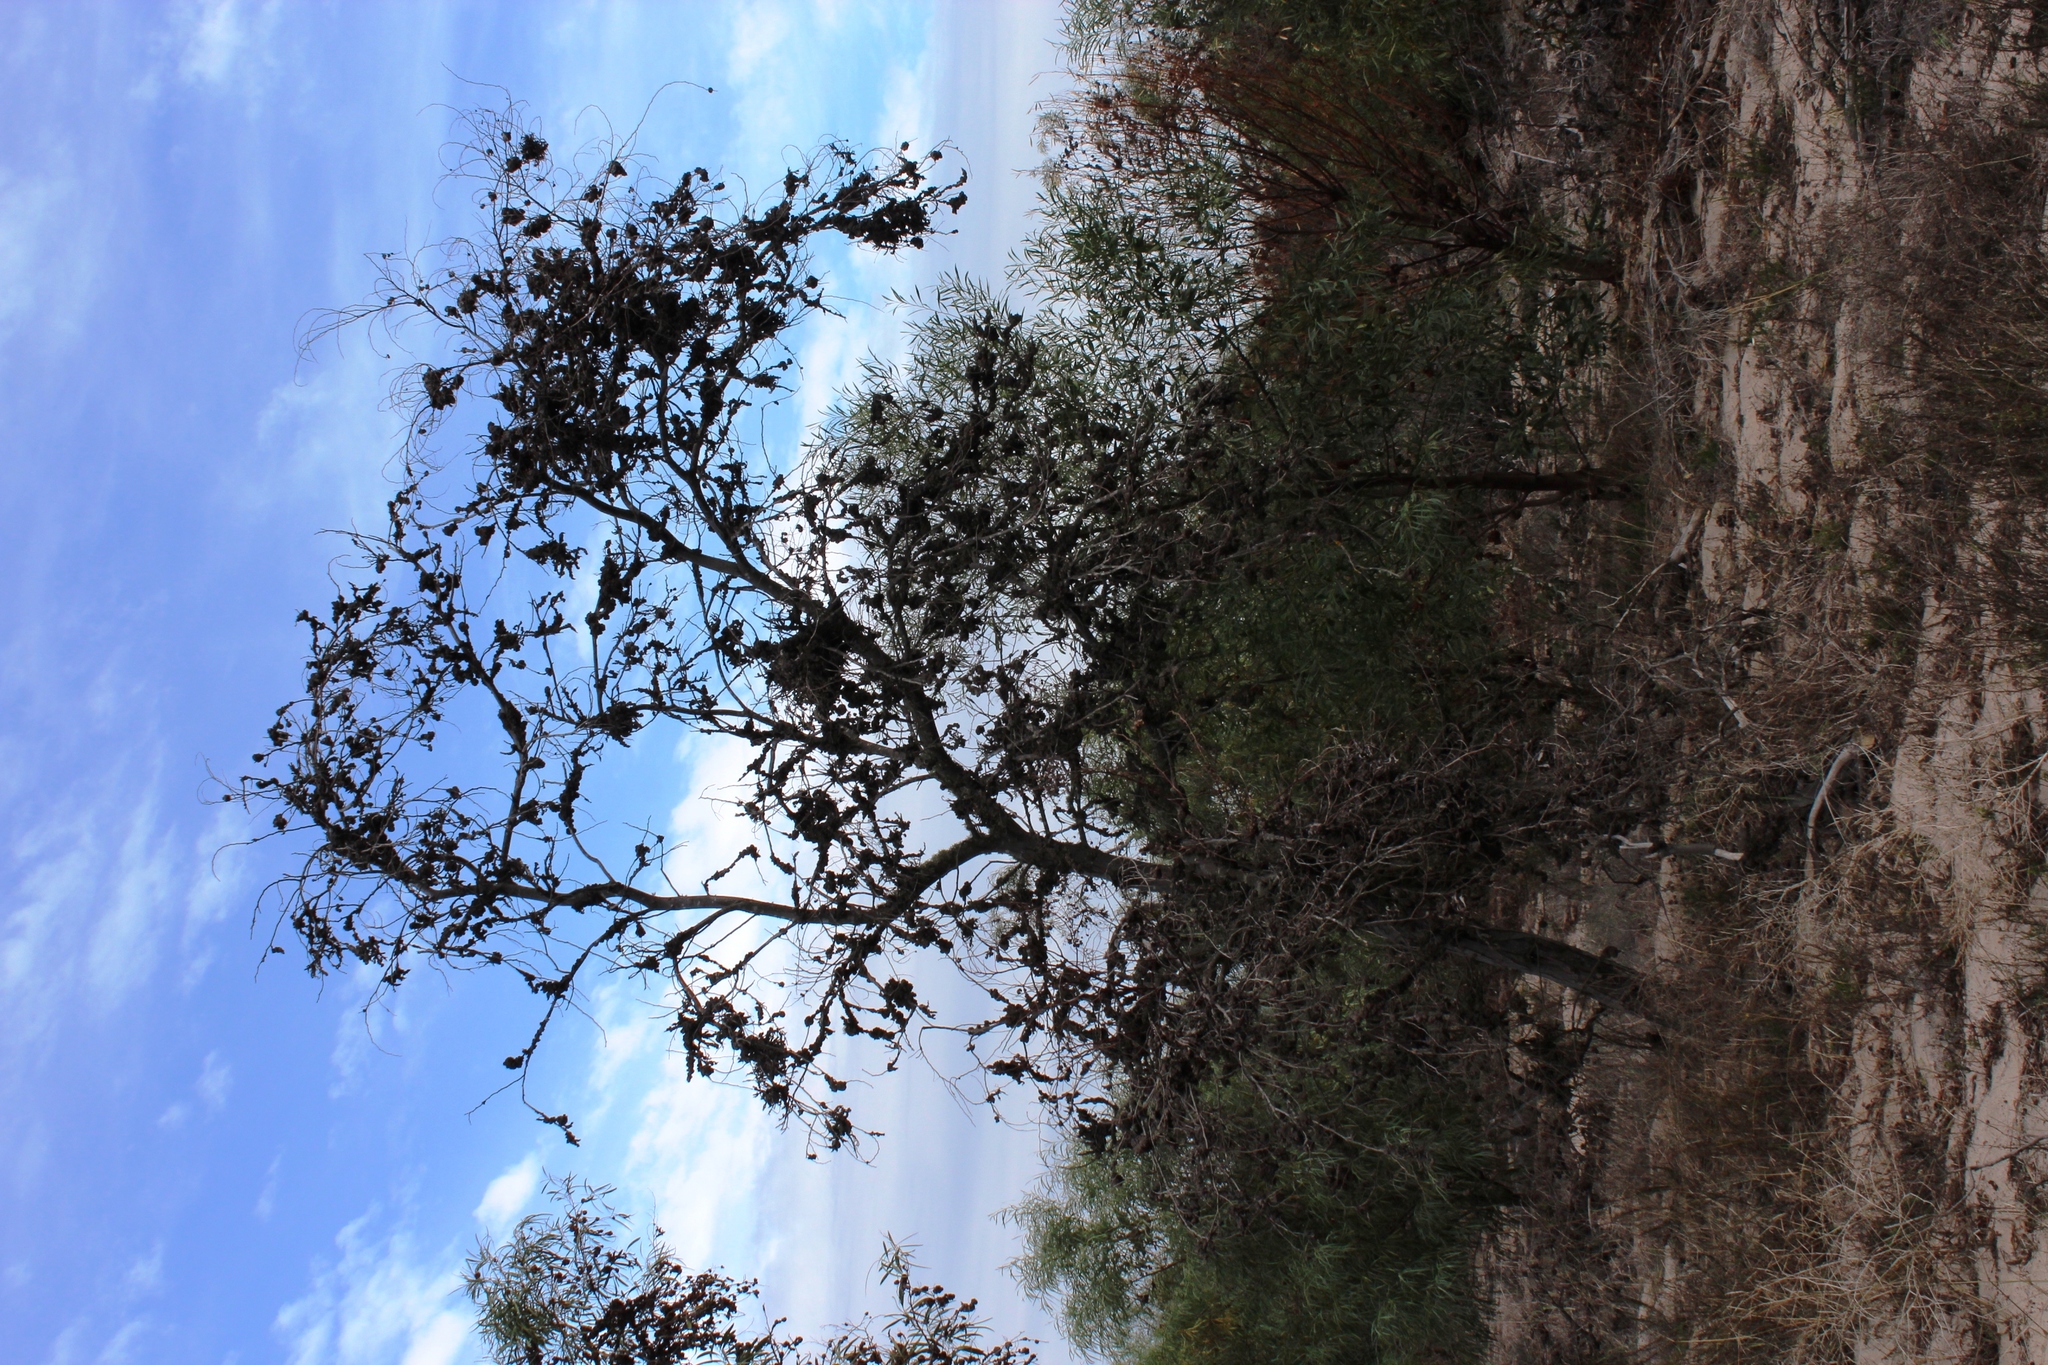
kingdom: Fungi
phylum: Basidiomycota
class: Pucciniomycetes
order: Pucciniales
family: Uromycladiaceae
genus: Uromycladium
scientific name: Uromycladium morrisii
